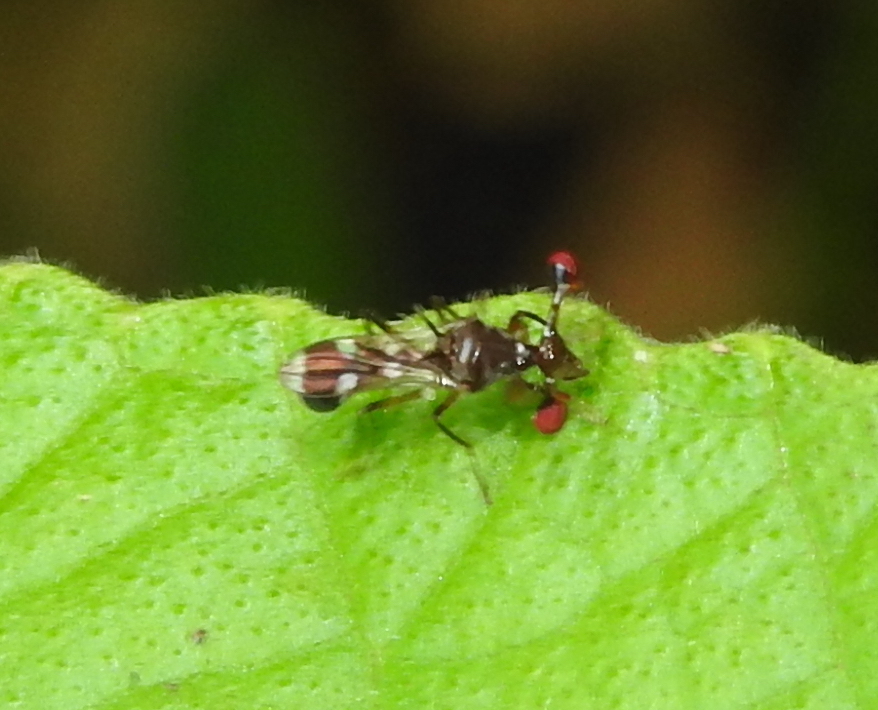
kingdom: Animalia
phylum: Arthropoda
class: Insecta
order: Diptera
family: Diopsidae
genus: Megalabops
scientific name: Megalabops
